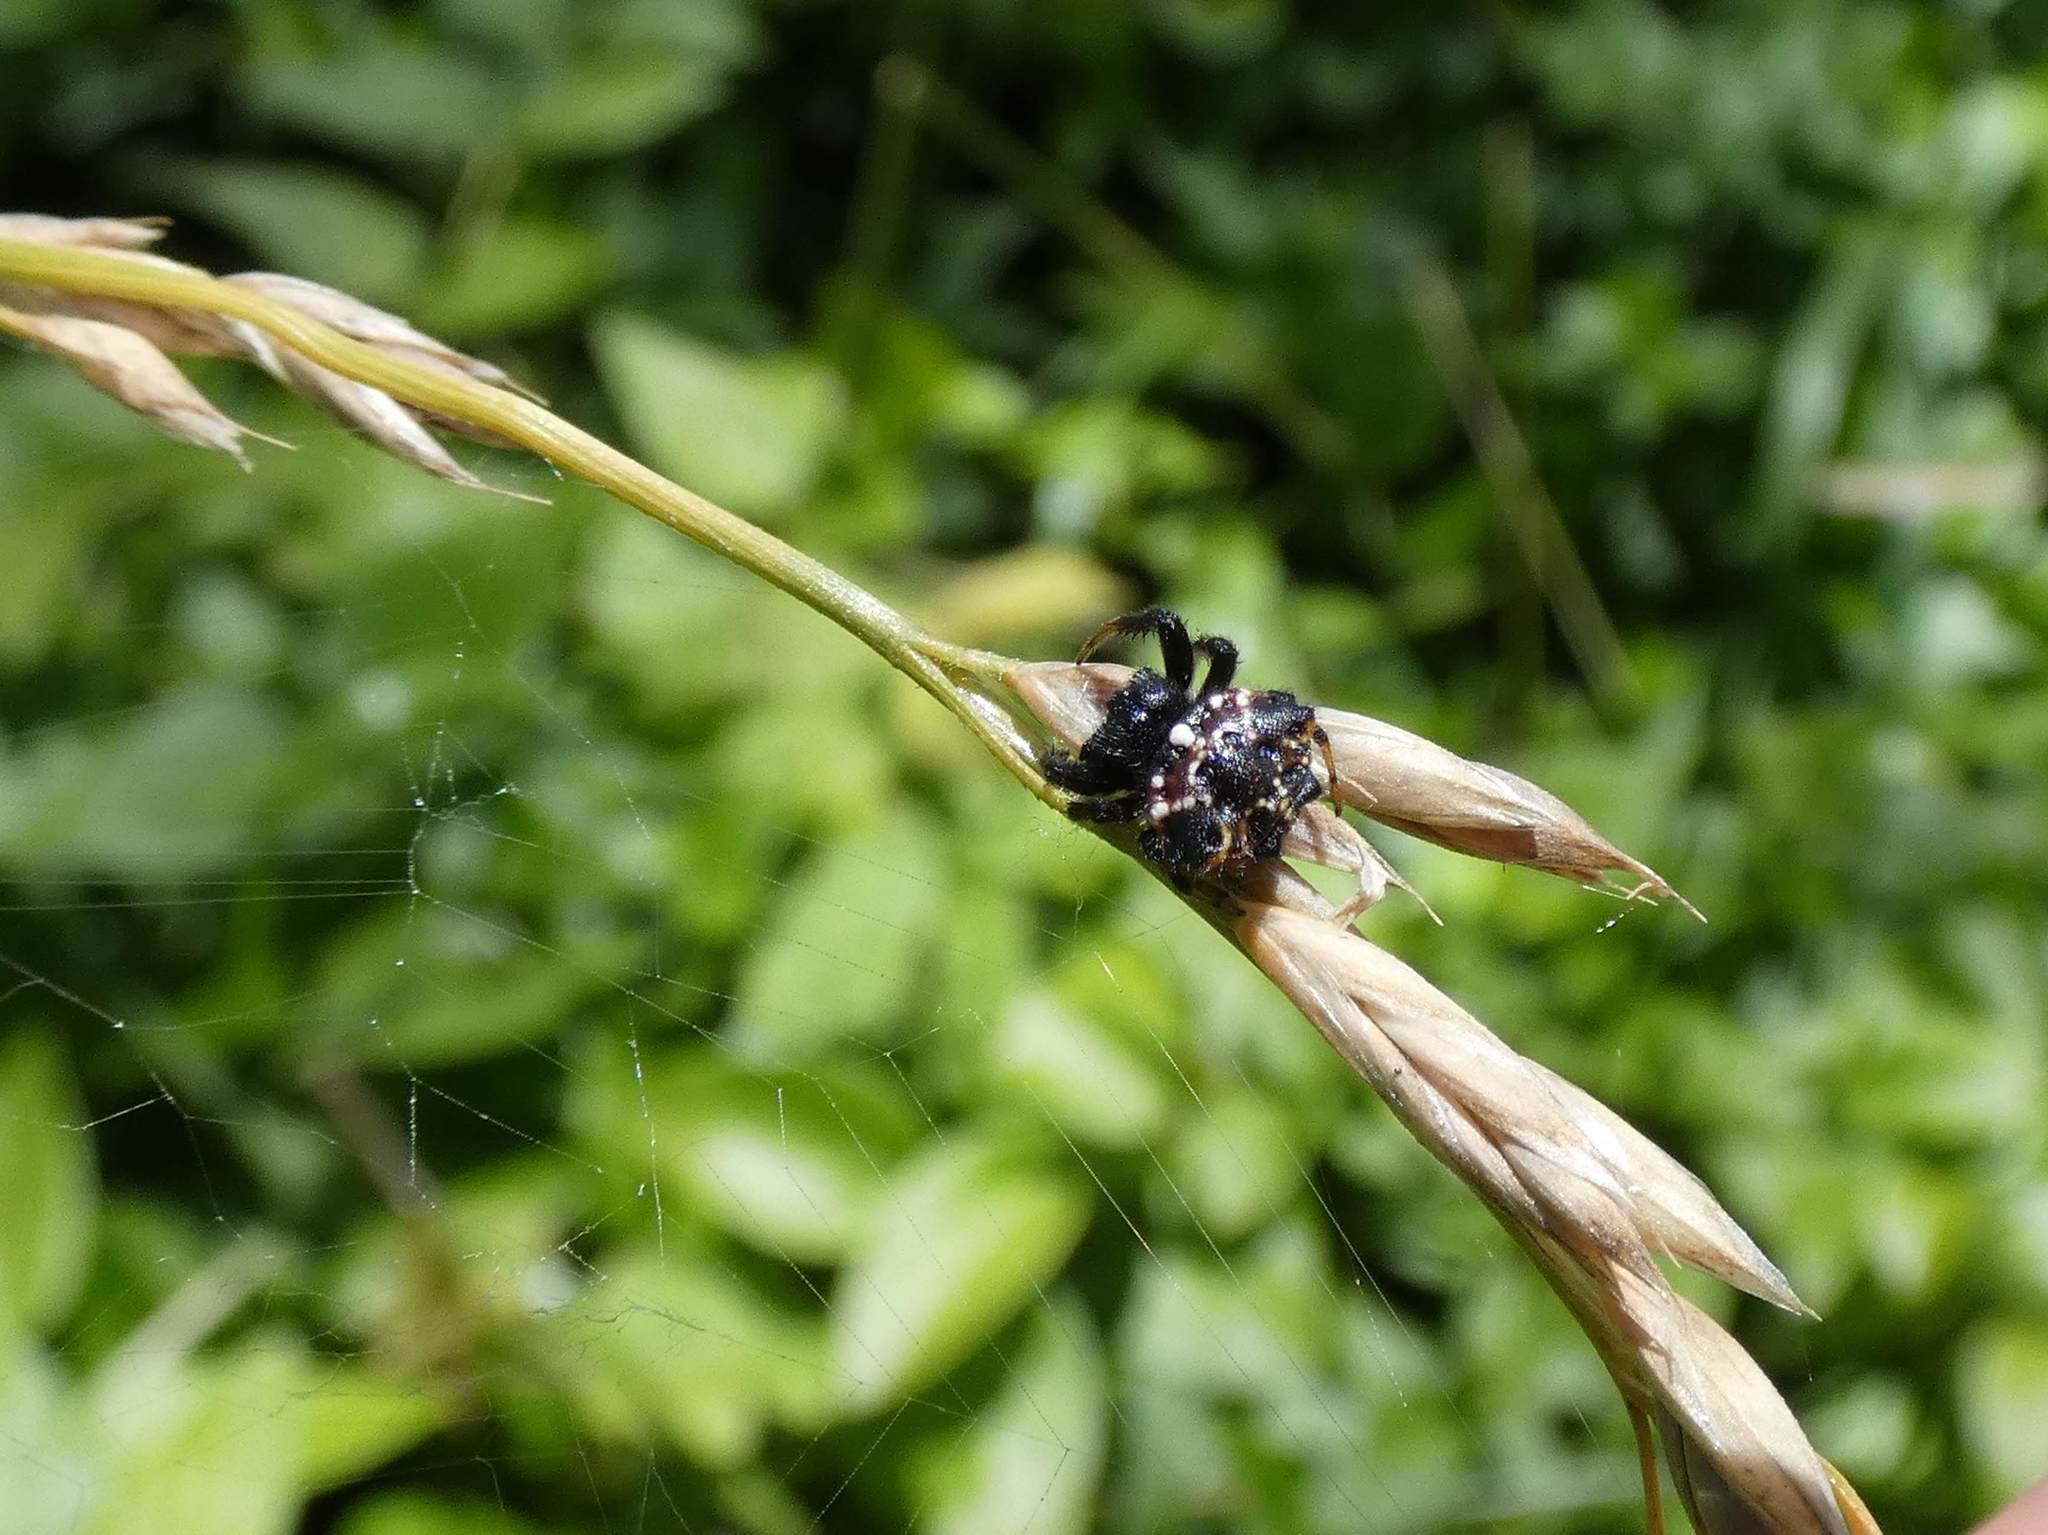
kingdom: Animalia
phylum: Arthropoda
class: Arachnida
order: Araneae
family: Araneidae
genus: Austracantha
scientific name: Austracantha minax
